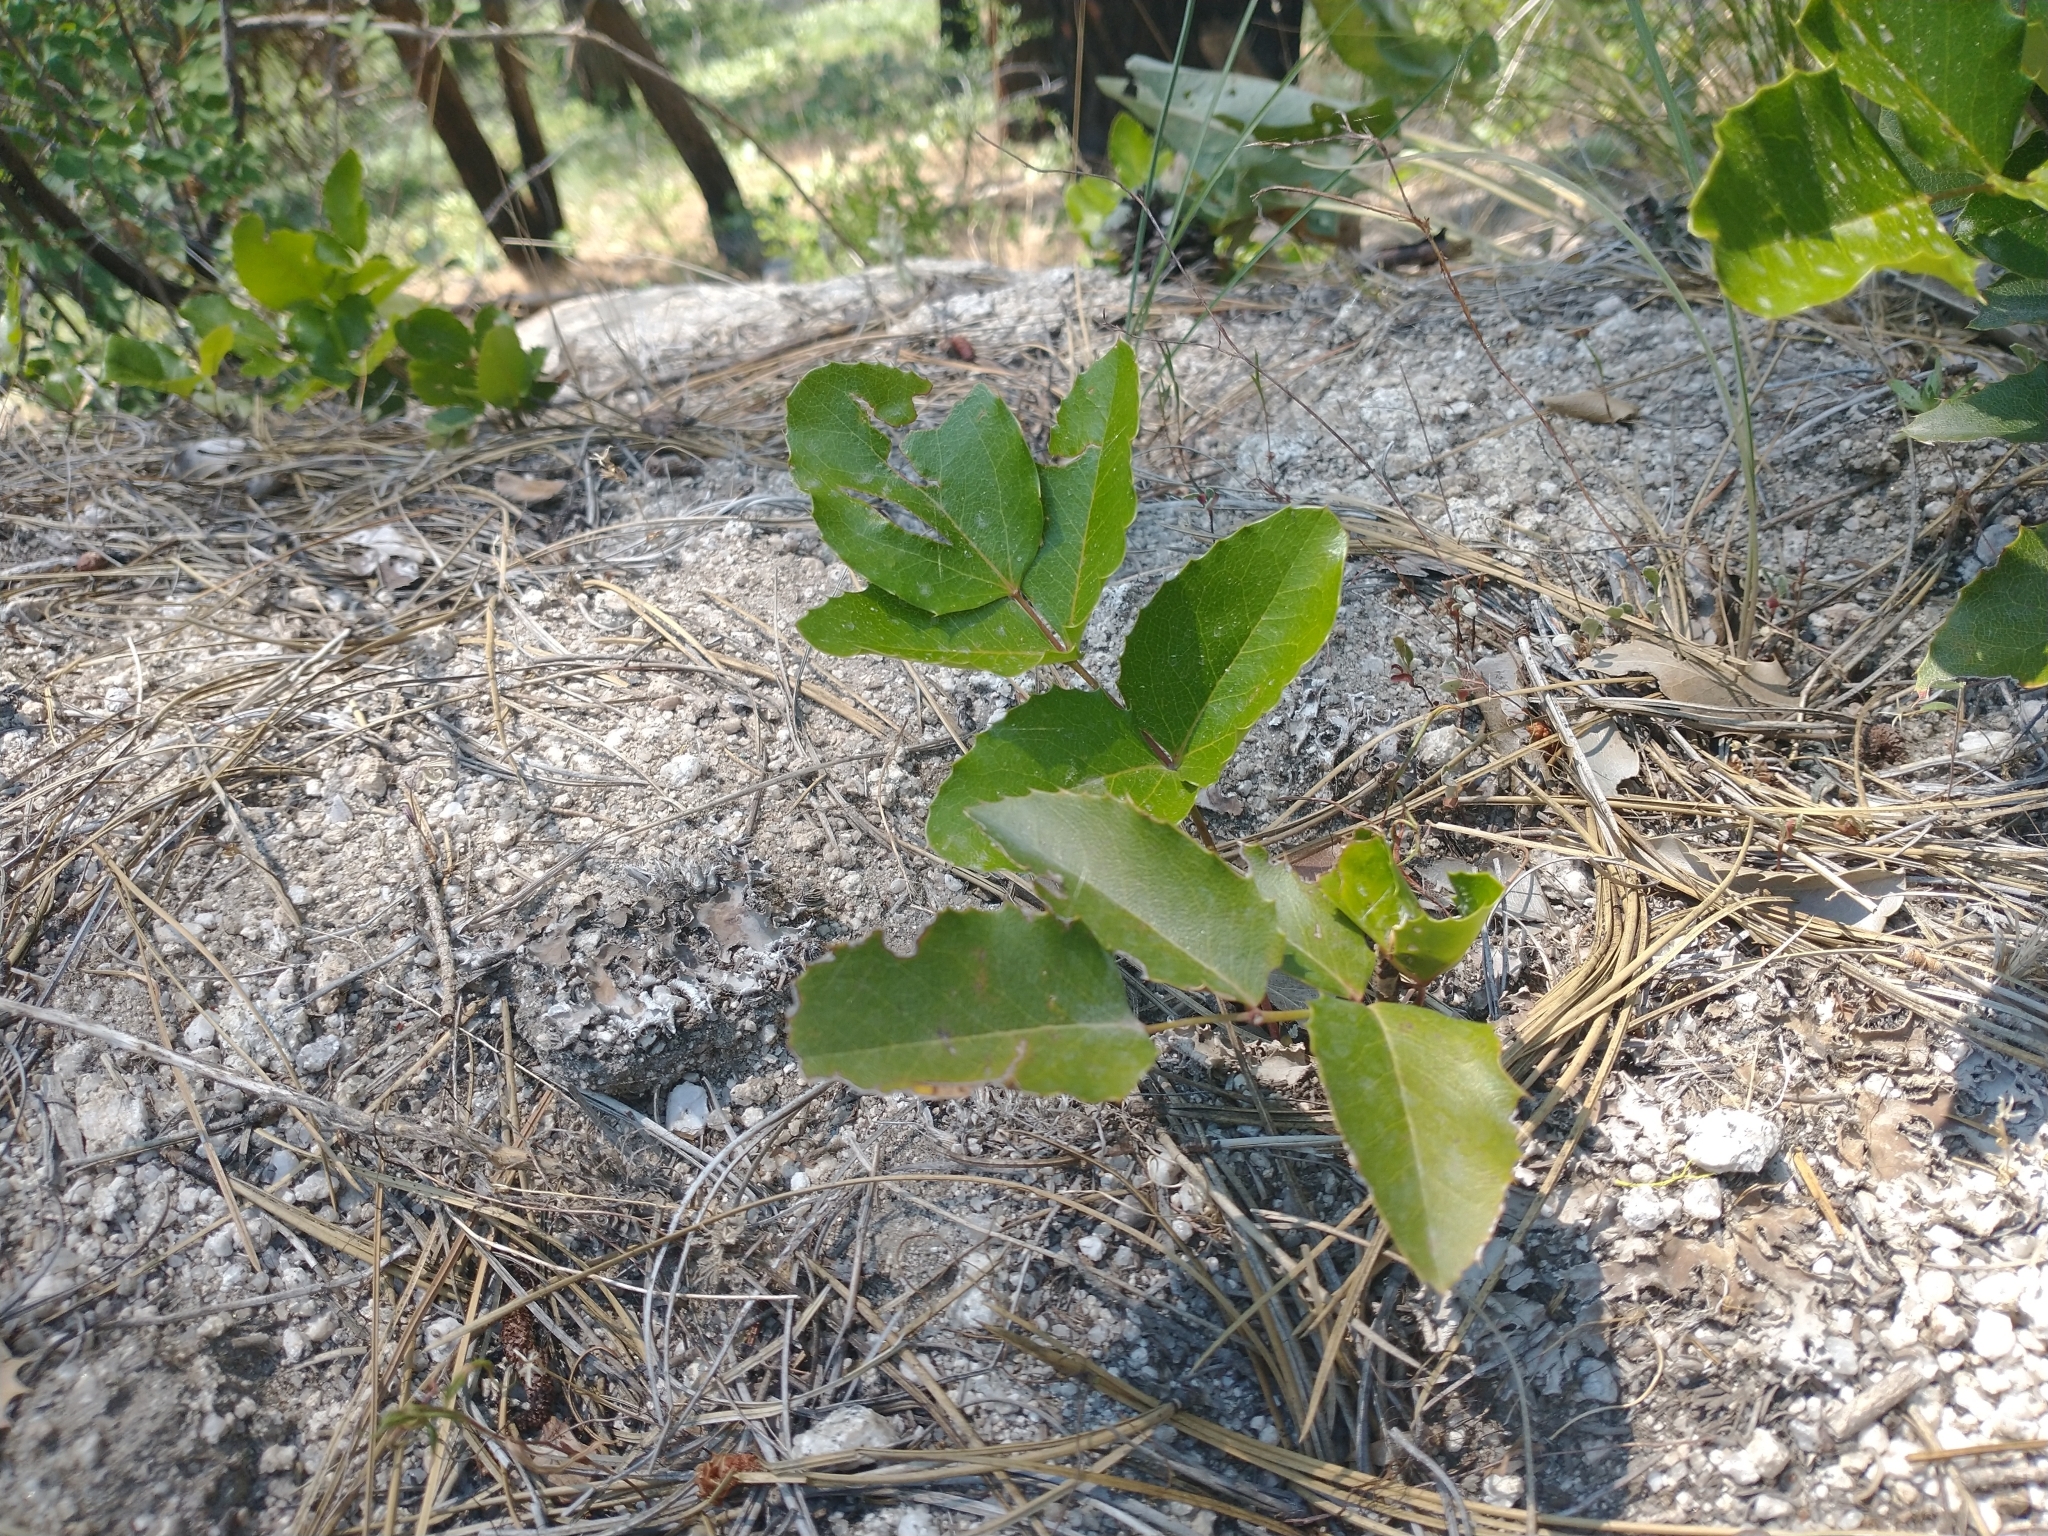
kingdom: Plantae
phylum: Tracheophyta
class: Magnoliopsida
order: Ranunculales
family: Berberidaceae
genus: Mahonia
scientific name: Mahonia repens
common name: Creeping oregon-grape
